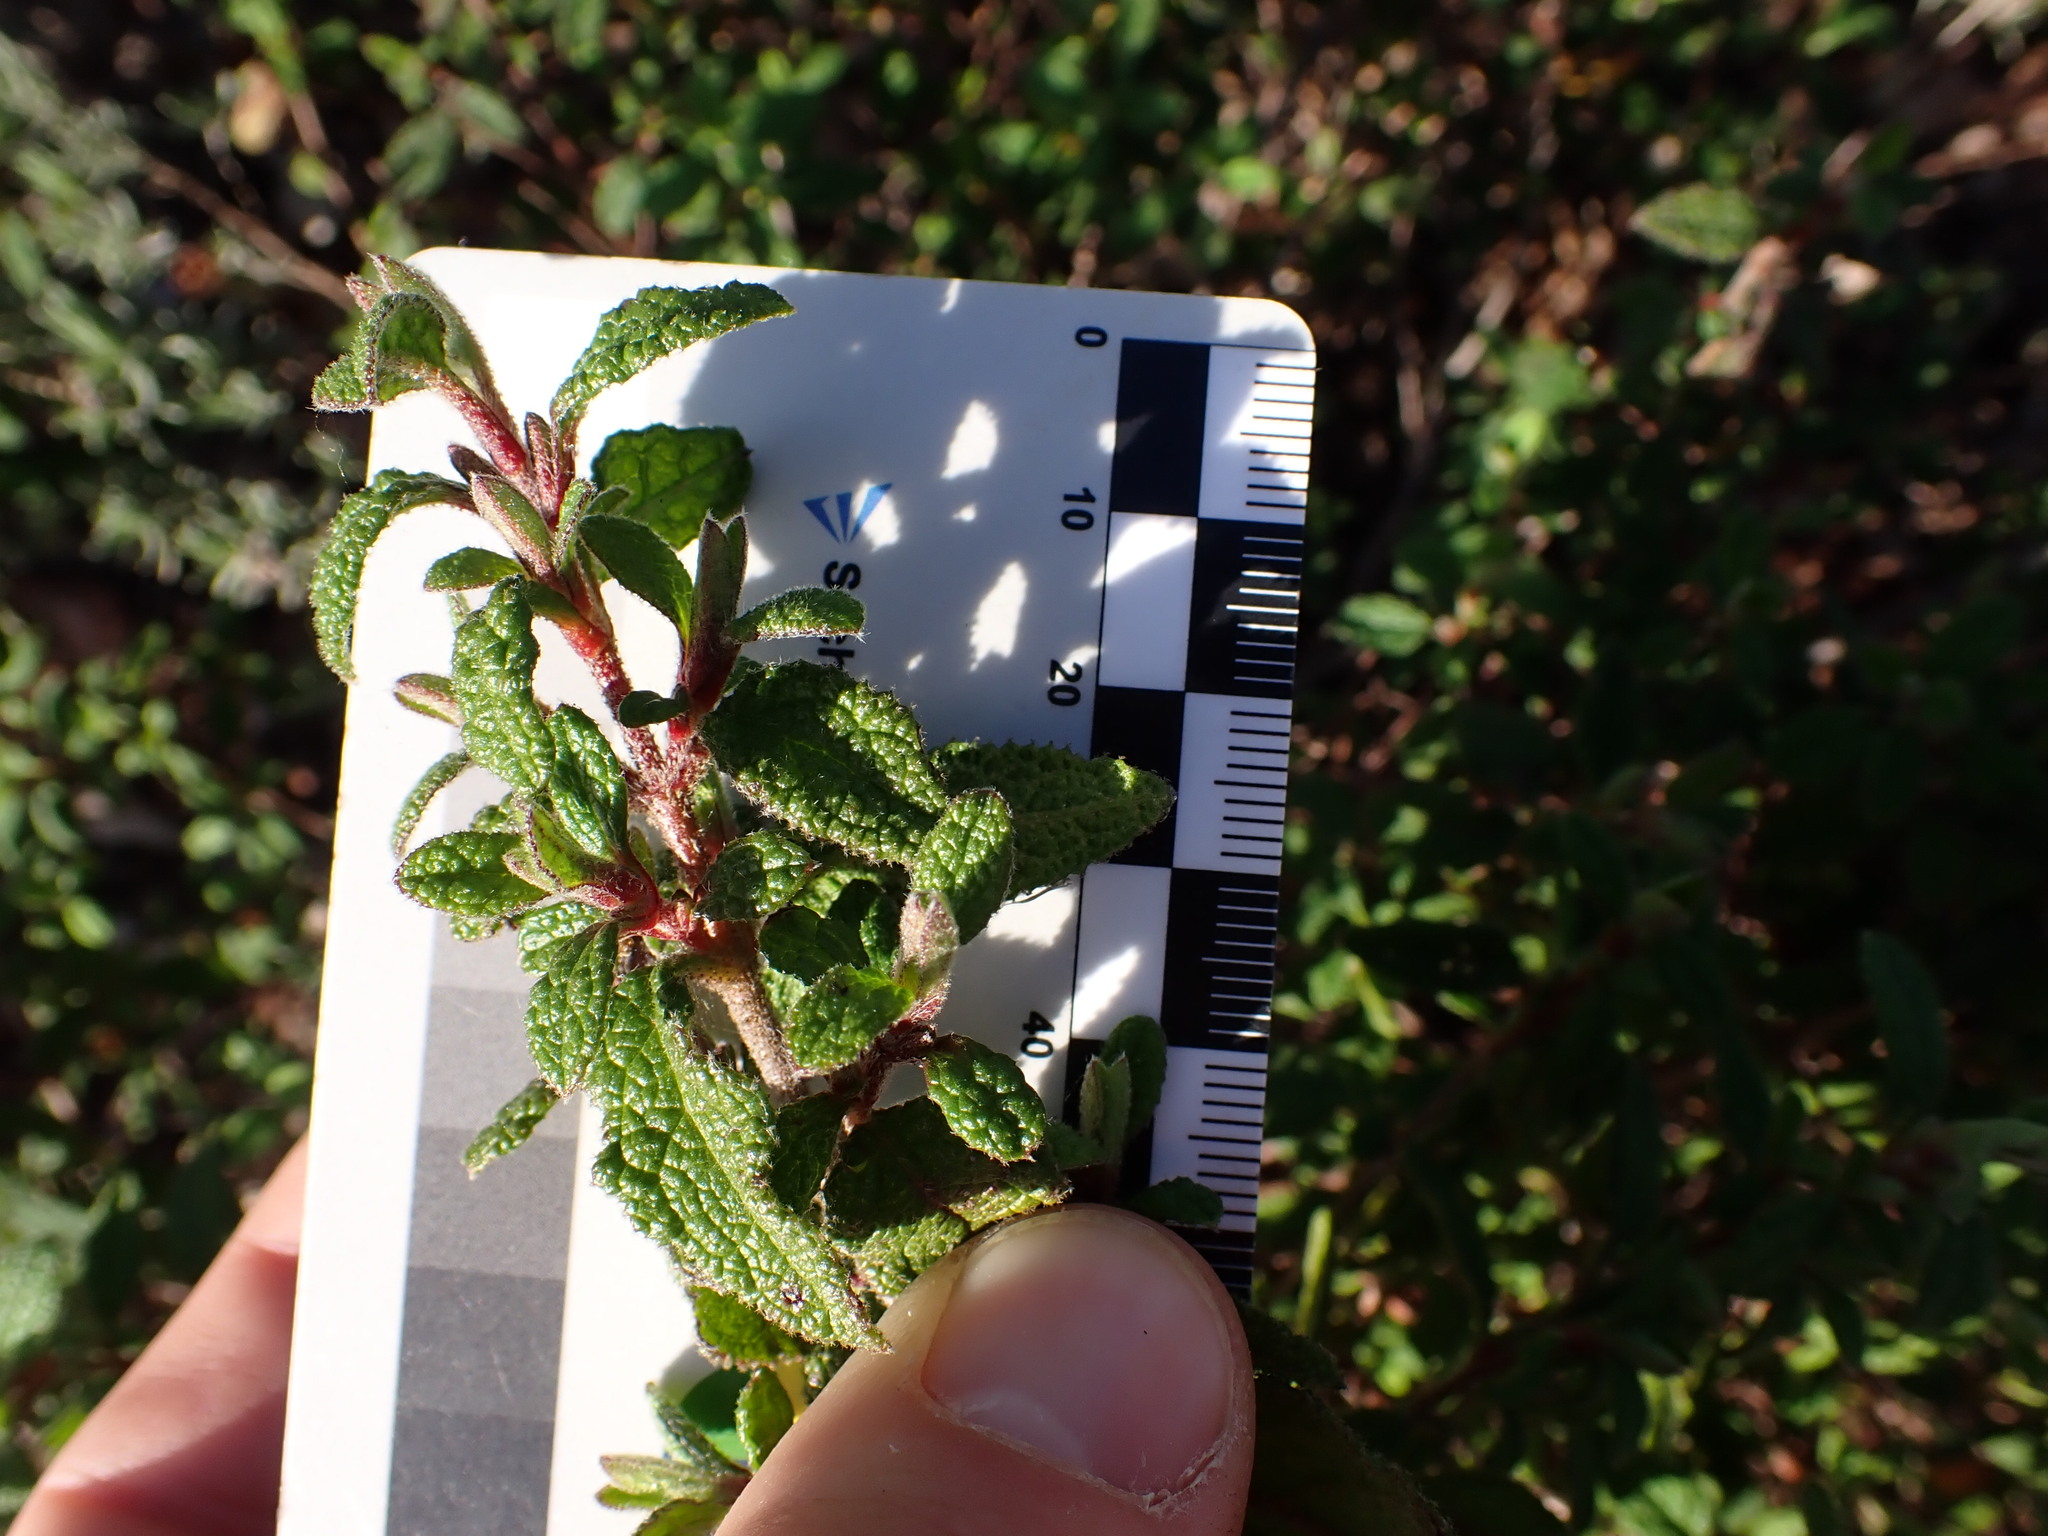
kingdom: Plantae
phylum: Tracheophyta
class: Magnoliopsida
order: Malvales
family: Cistaceae
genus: Cistus
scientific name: Cistus salviifolius
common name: Salvia cistus
